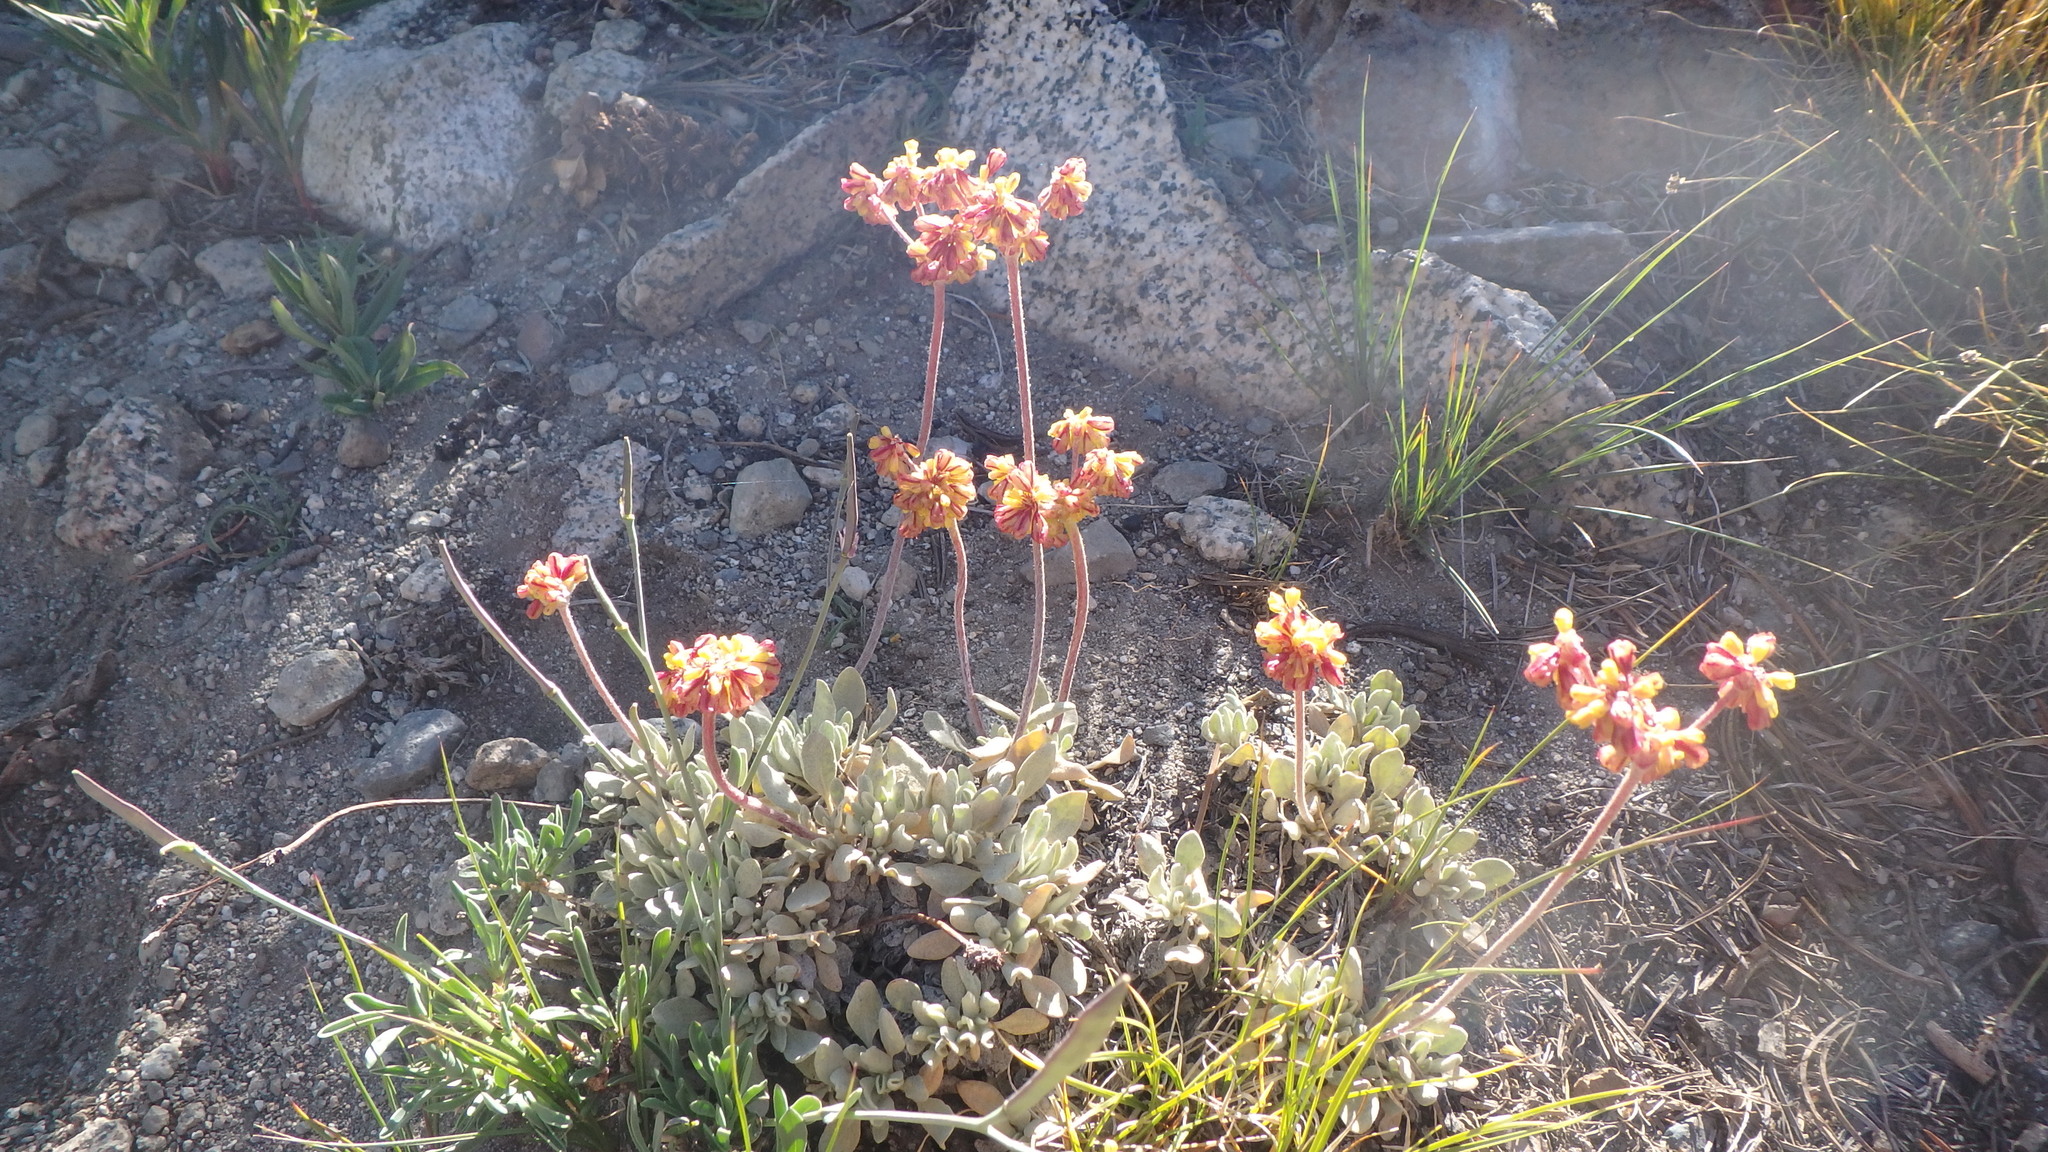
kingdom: Plantae
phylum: Tracheophyta
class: Magnoliopsida
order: Caryophyllales
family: Polygonaceae
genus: Eriogonum
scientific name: Eriogonum incanum
